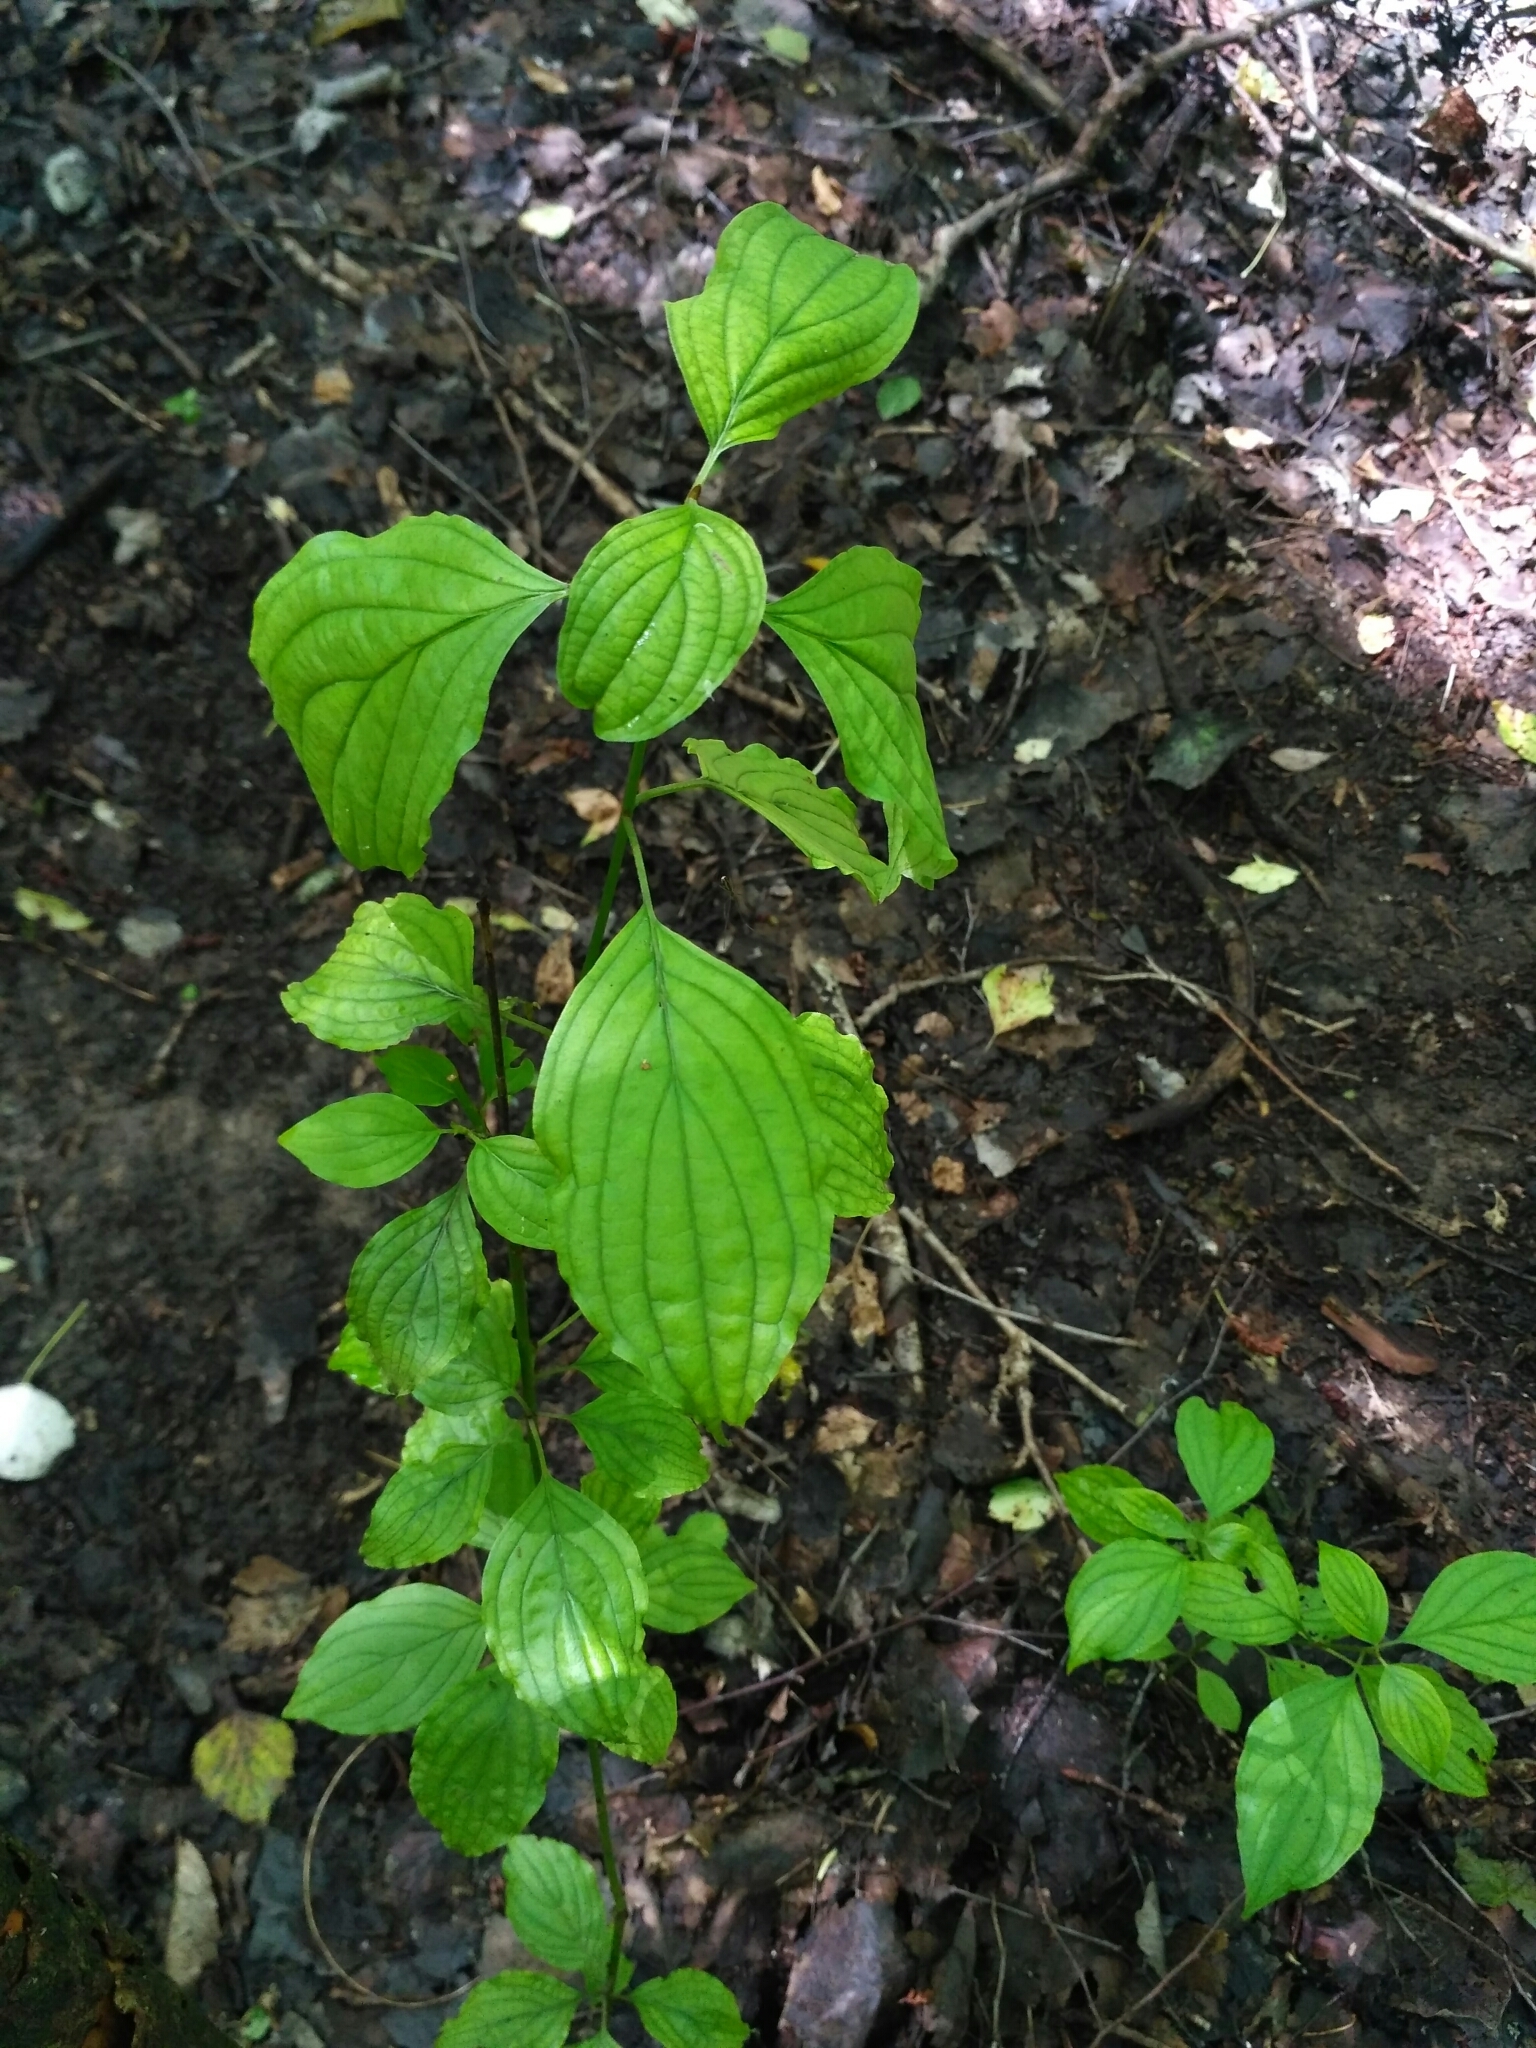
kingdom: Plantae
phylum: Tracheophyta
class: Magnoliopsida
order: Cornales
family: Cornaceae
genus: Cornus
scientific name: Cornus sanguinea
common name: Dogwood
